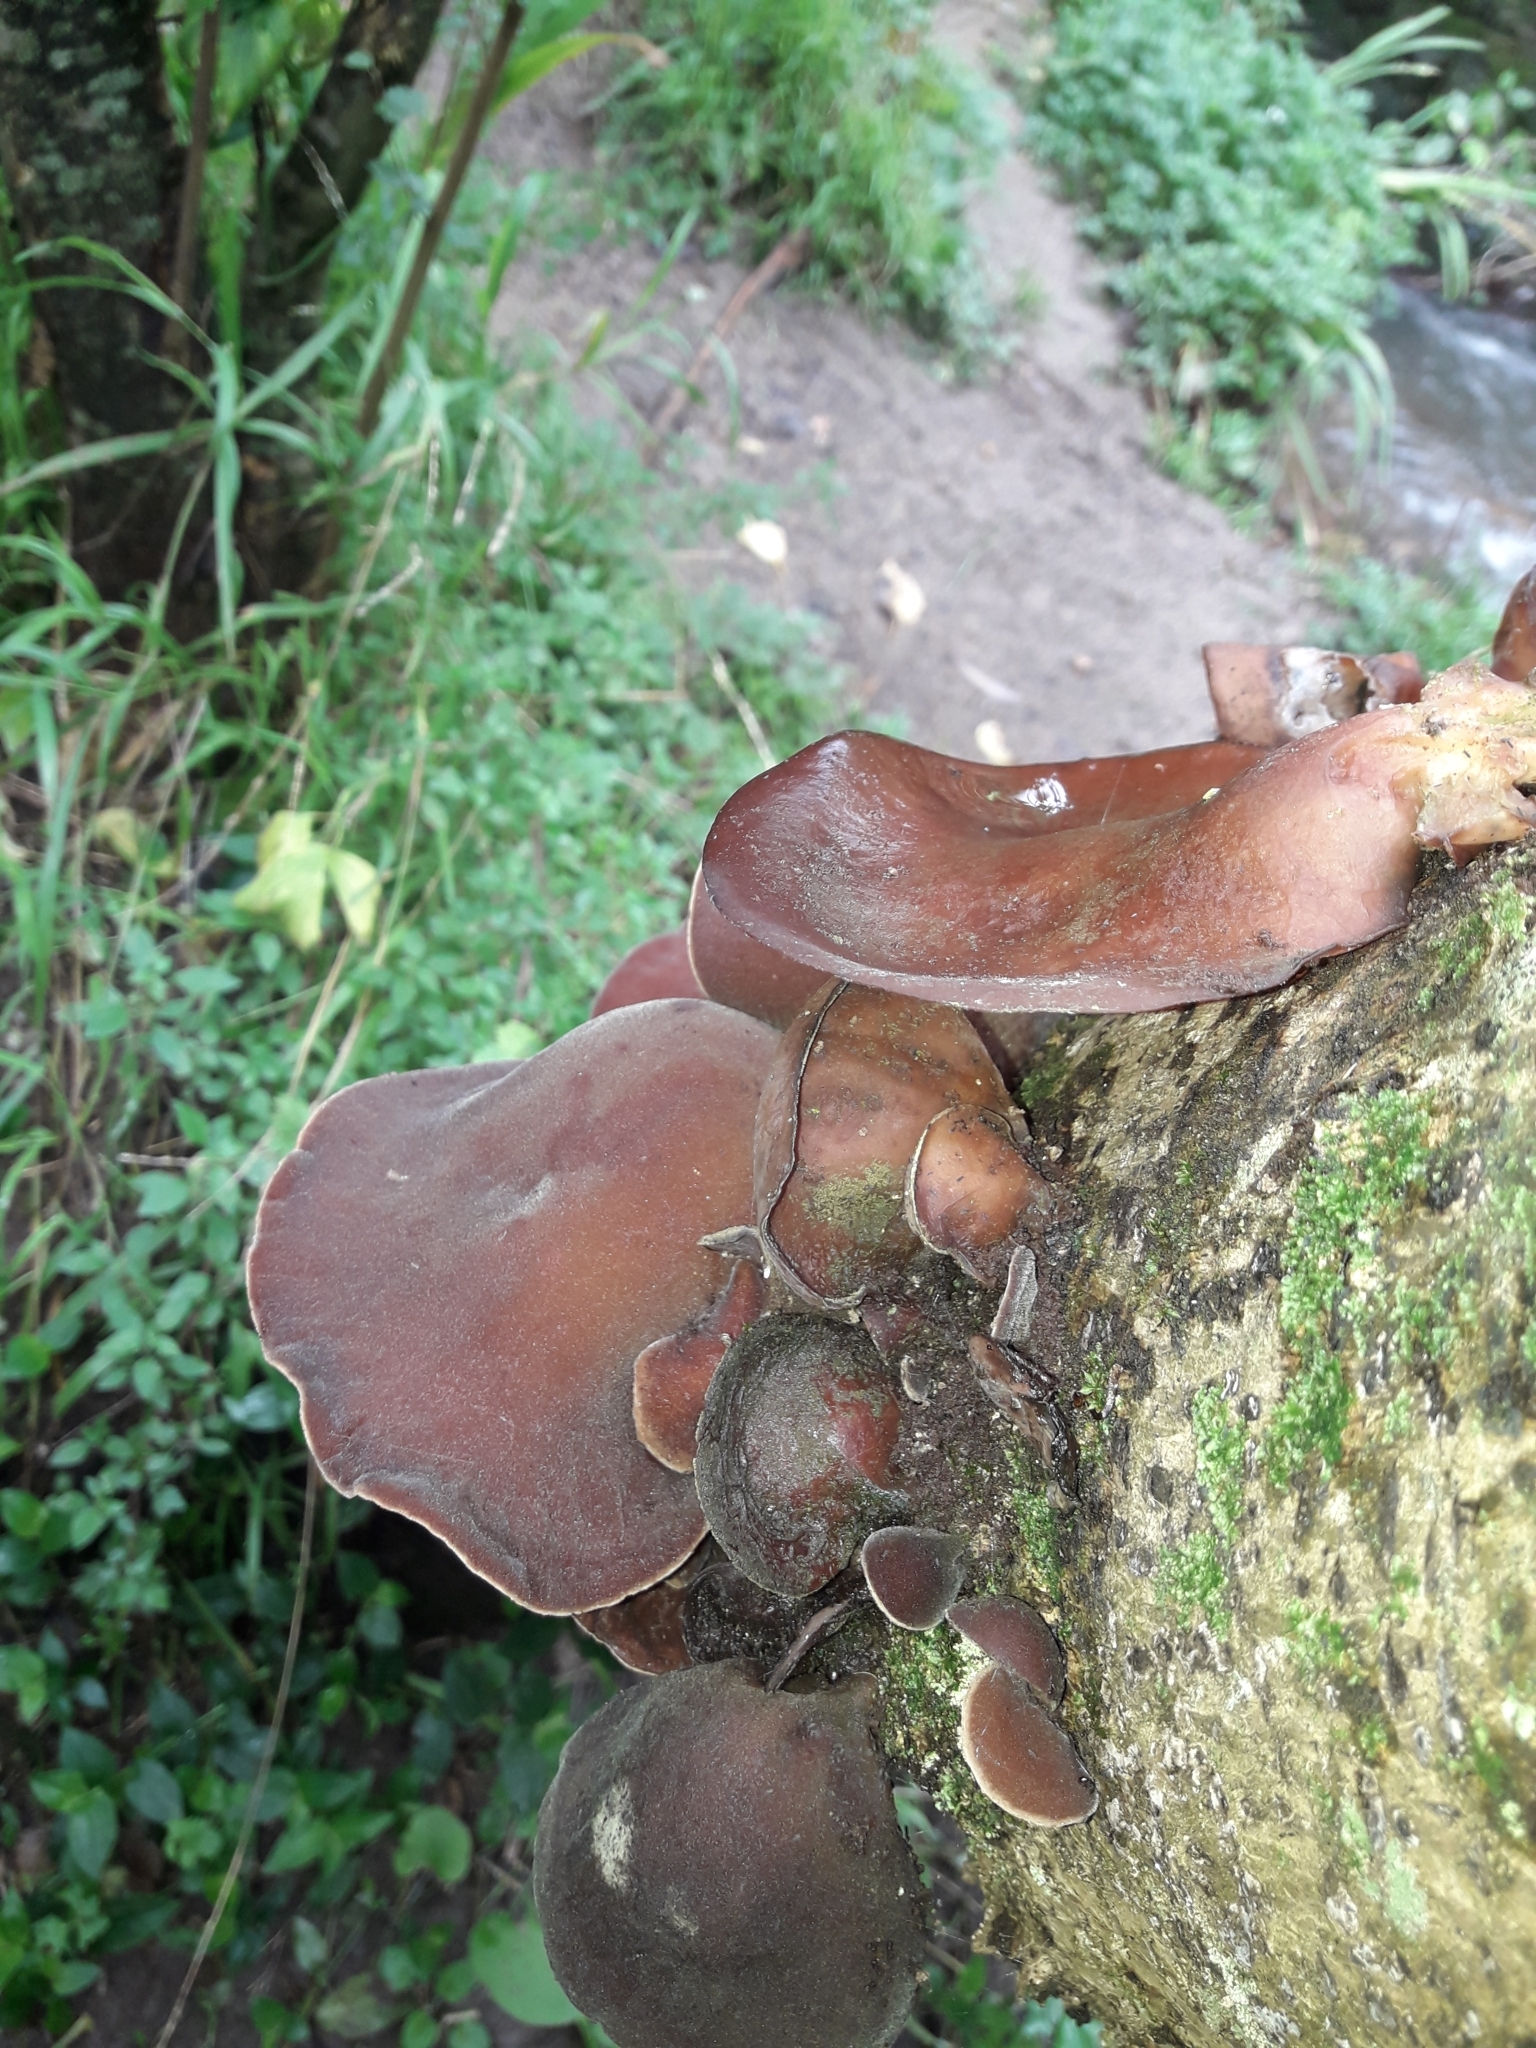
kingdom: Fungi
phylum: Basidiomycota
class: Agaricomycetes
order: Auriculariales
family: Auriculariaceae
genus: Auricularia
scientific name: Auricularia cornea
